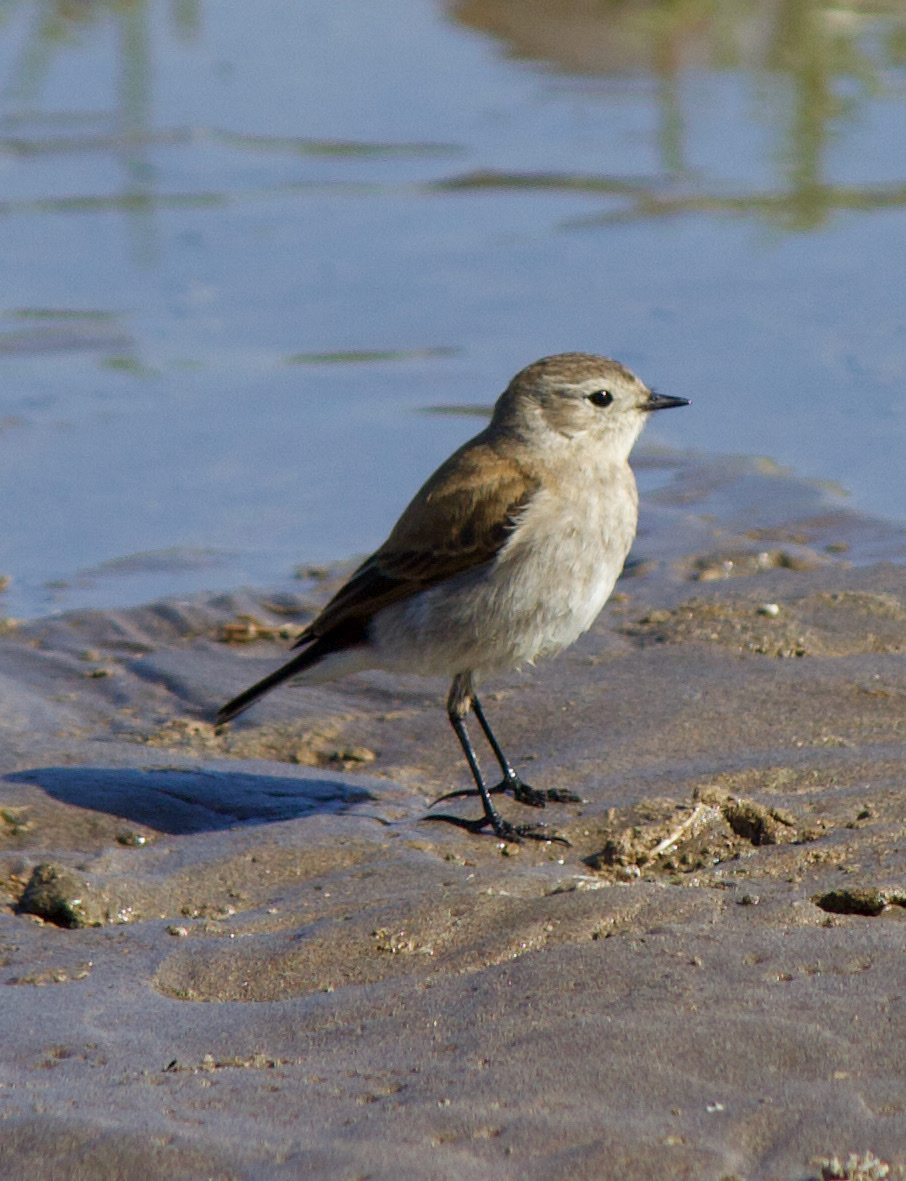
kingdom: Animalia
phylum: Chordata
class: Aves
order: Passeriformes
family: Tyrannidae
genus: Lessonia
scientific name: Lessonia rufa
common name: Austral negrito
